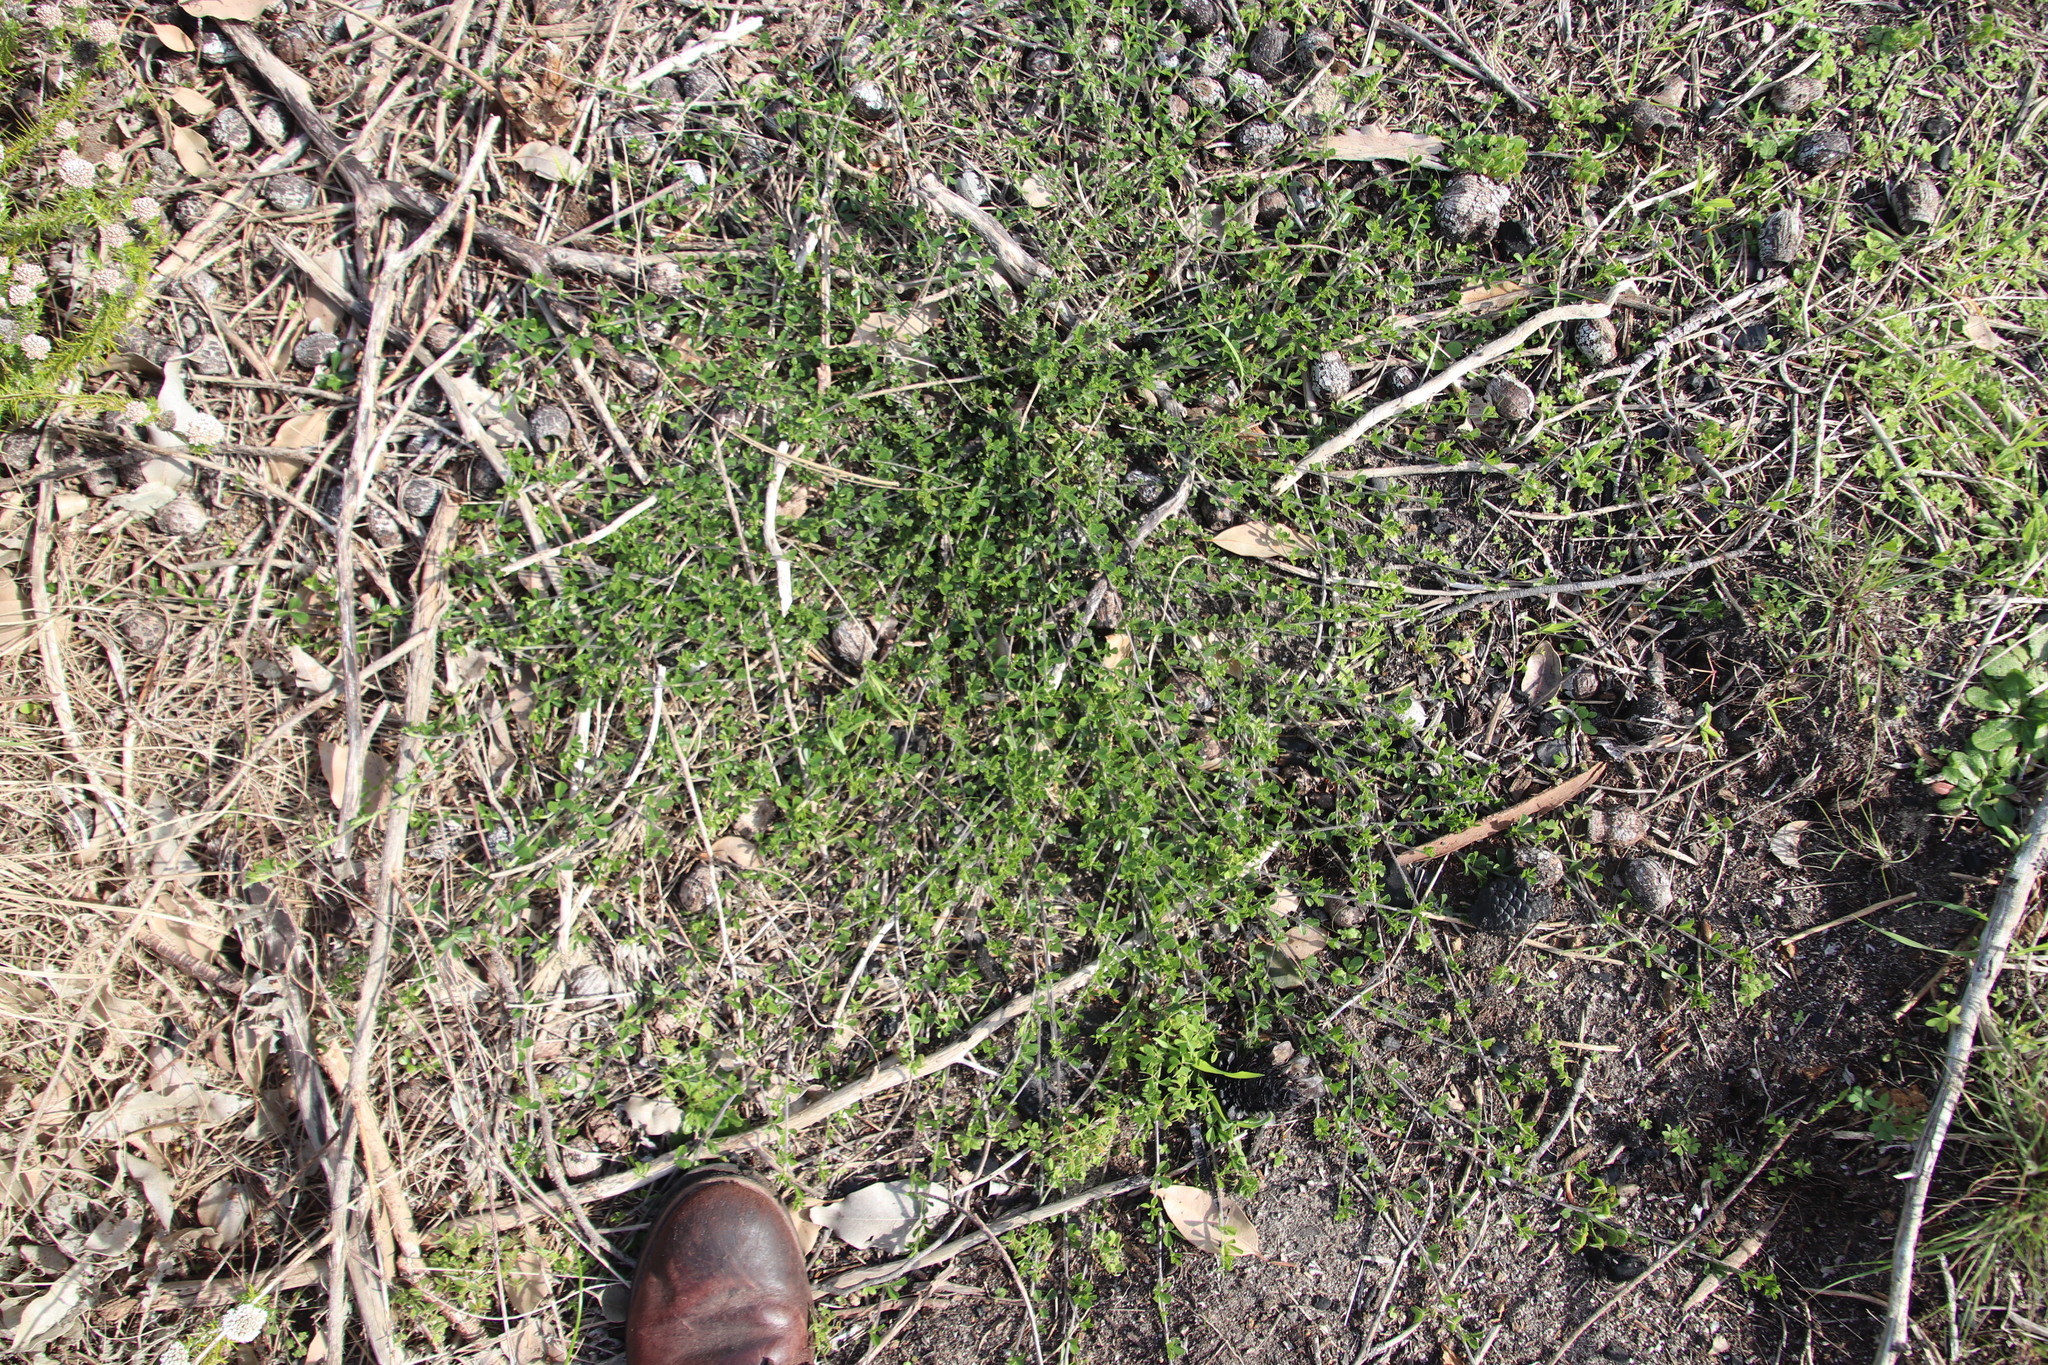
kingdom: Plantae
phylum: Tracheophyta
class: Magnoliopsida
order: Fabales
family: Fabaceae
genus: Psoralea
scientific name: Psoralea
